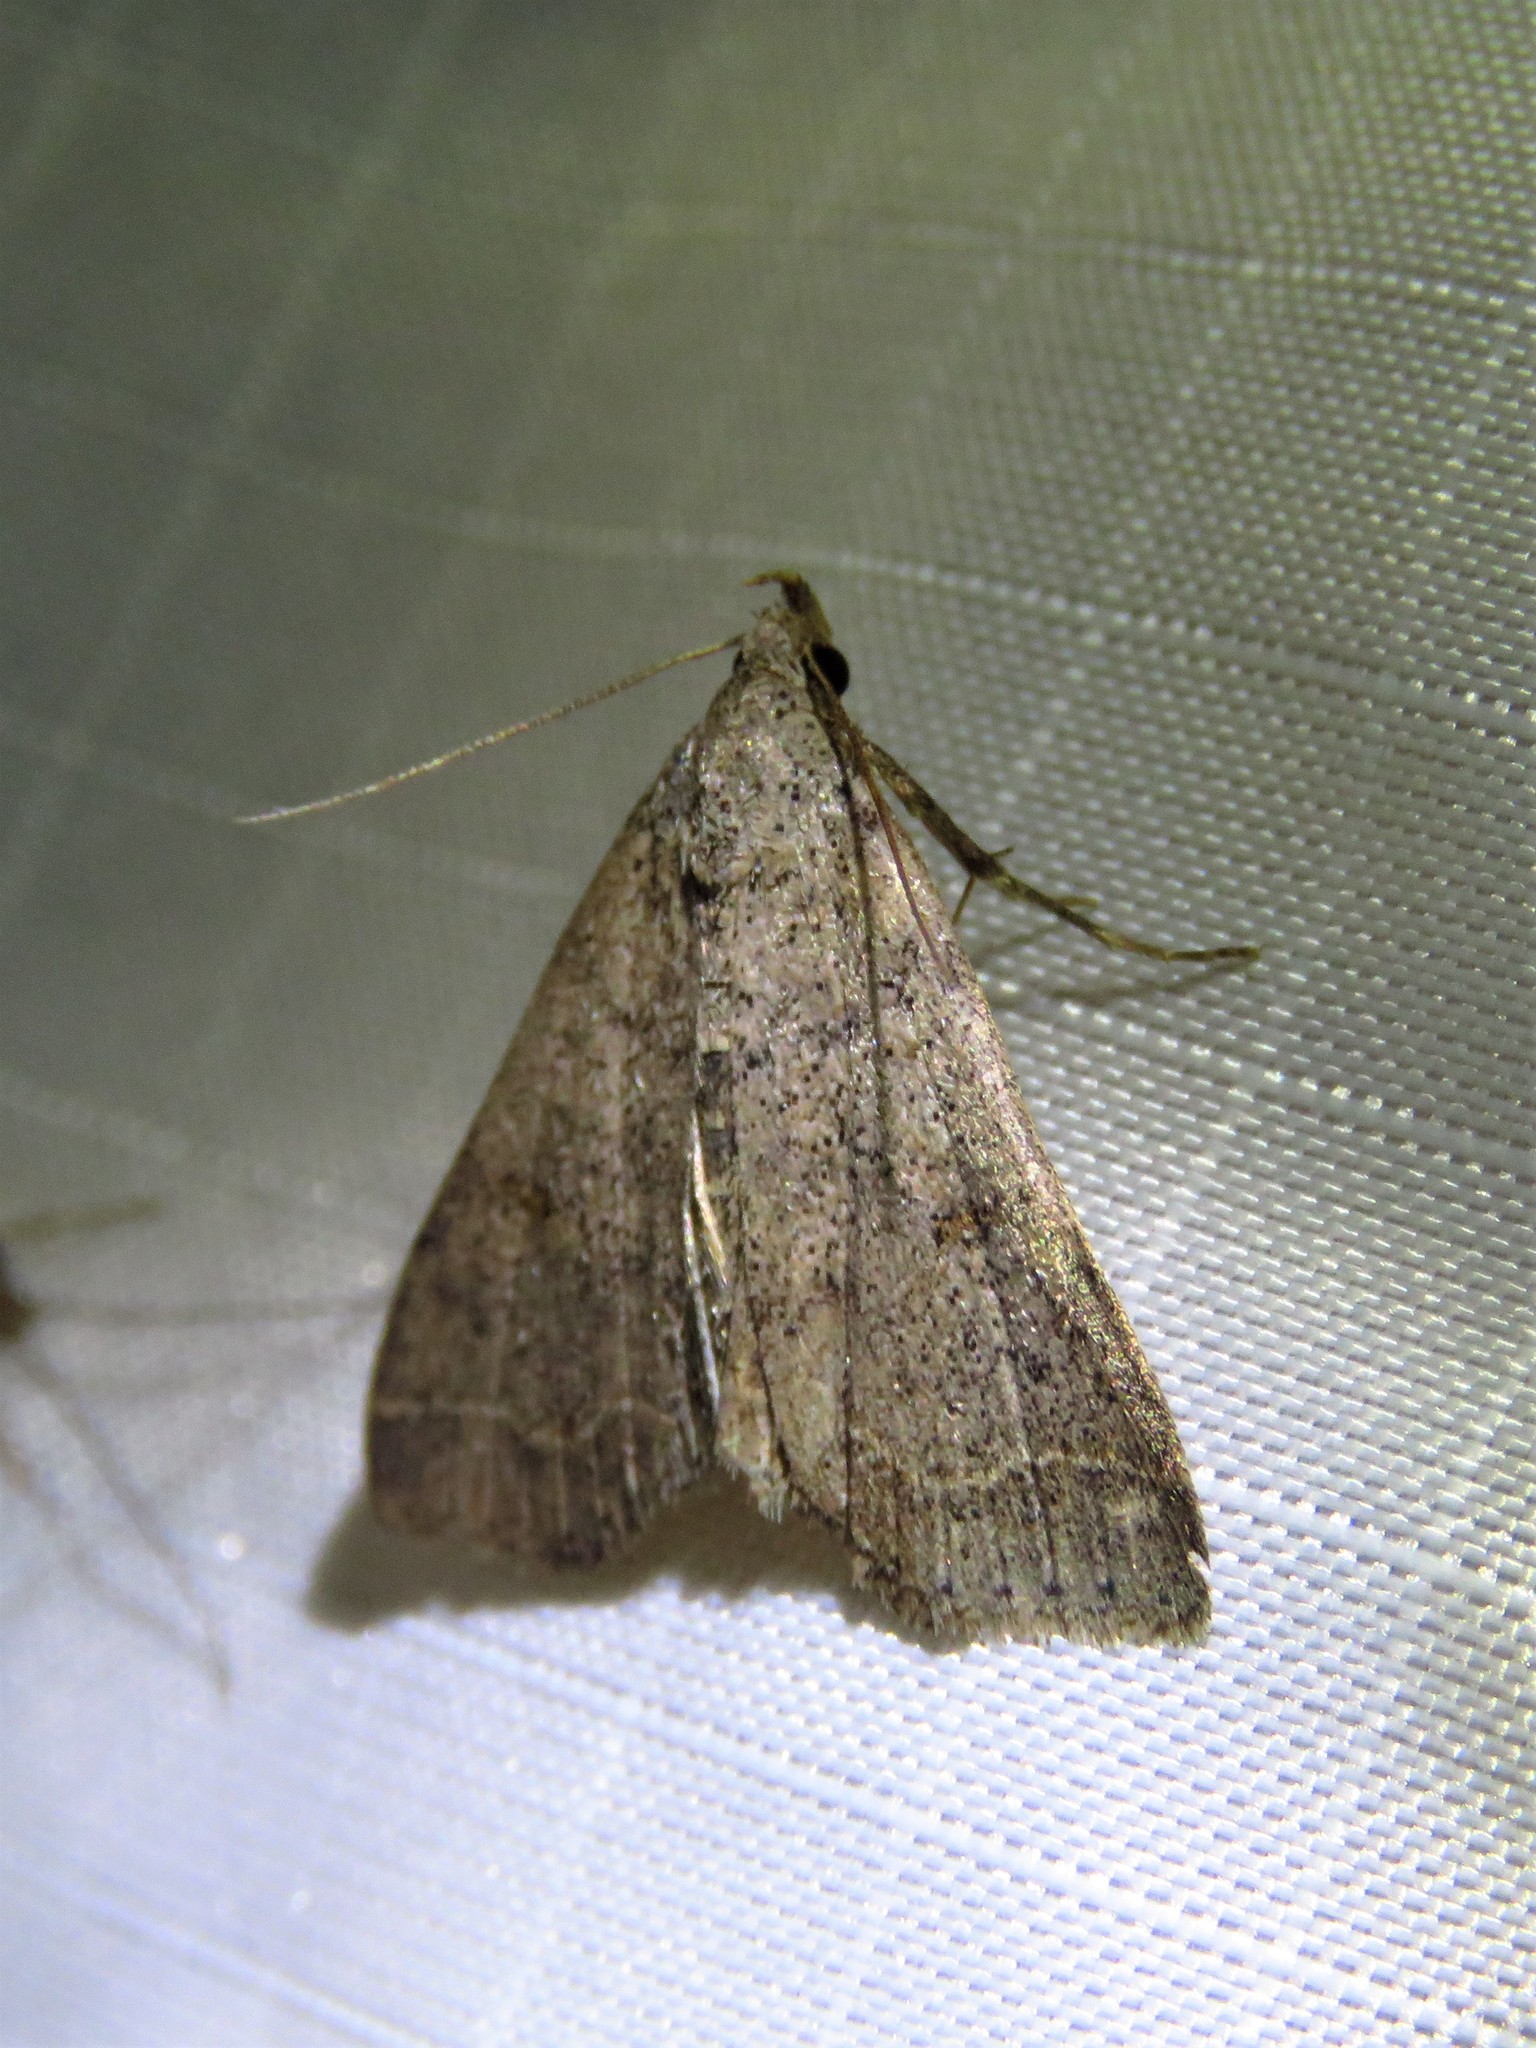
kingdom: Animalia
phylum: Arthropoda
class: Insecta
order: Lepidoptera
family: Erebidae
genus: Bleptina
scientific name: Bleptina caradrinalis
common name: Bent-winged owlet
